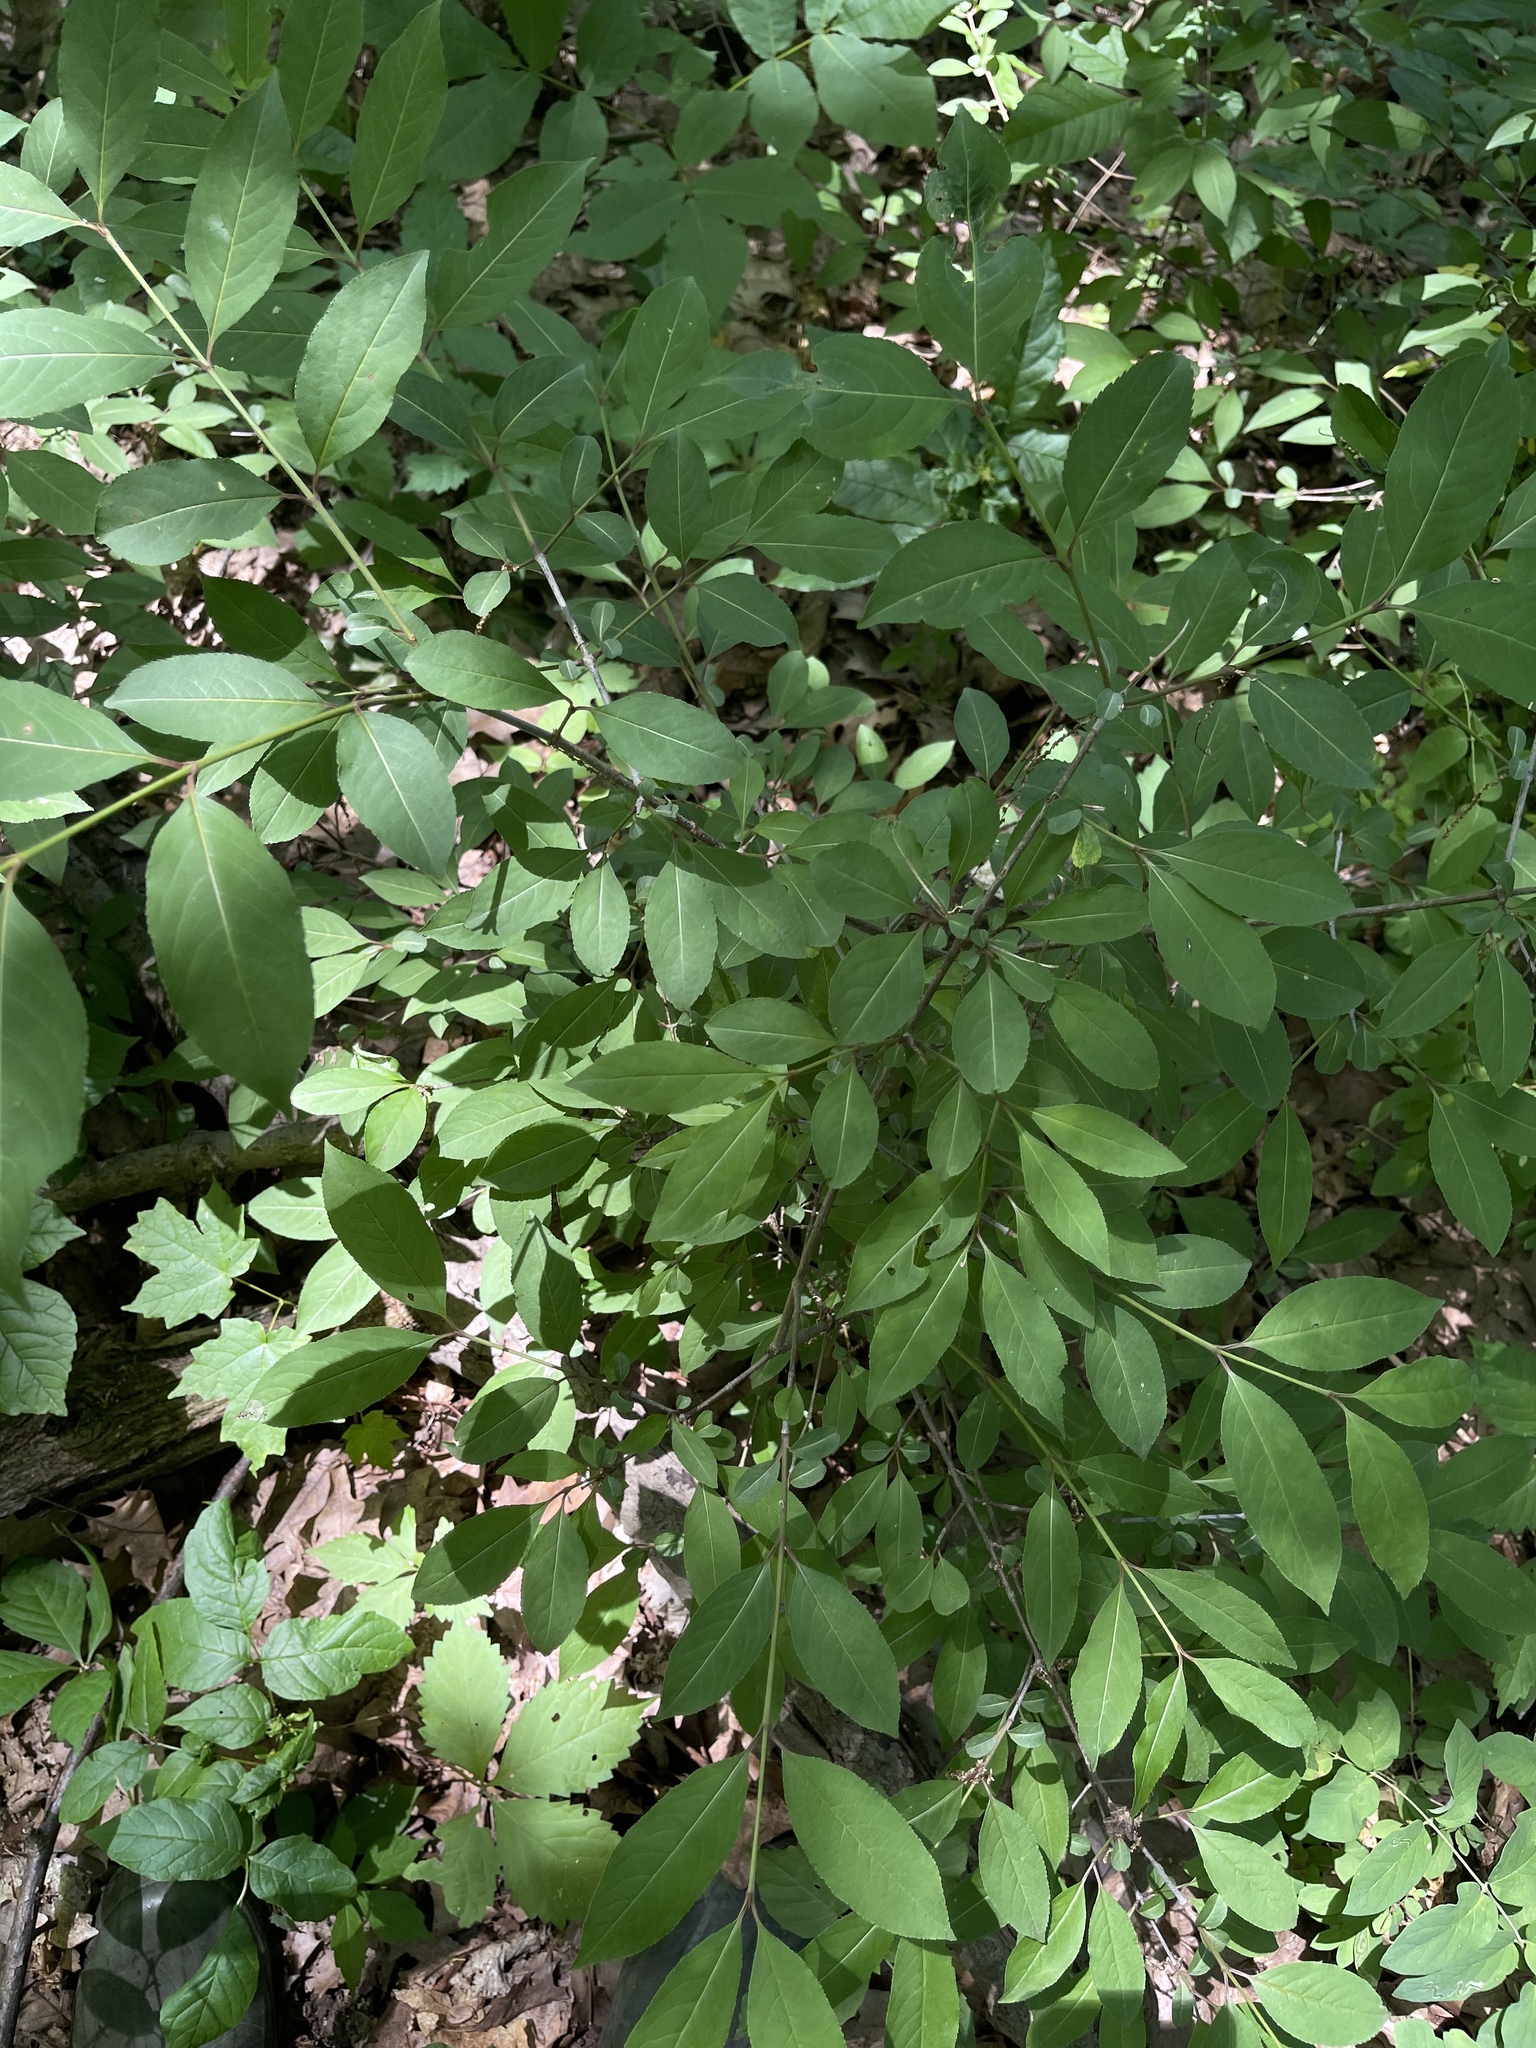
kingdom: Plantae
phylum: Tracheophyta
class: Magnoliopsida
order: Dipsacales
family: Viburnaceae
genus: Viburnum
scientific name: Viburnum prunifolium
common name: Black haw
